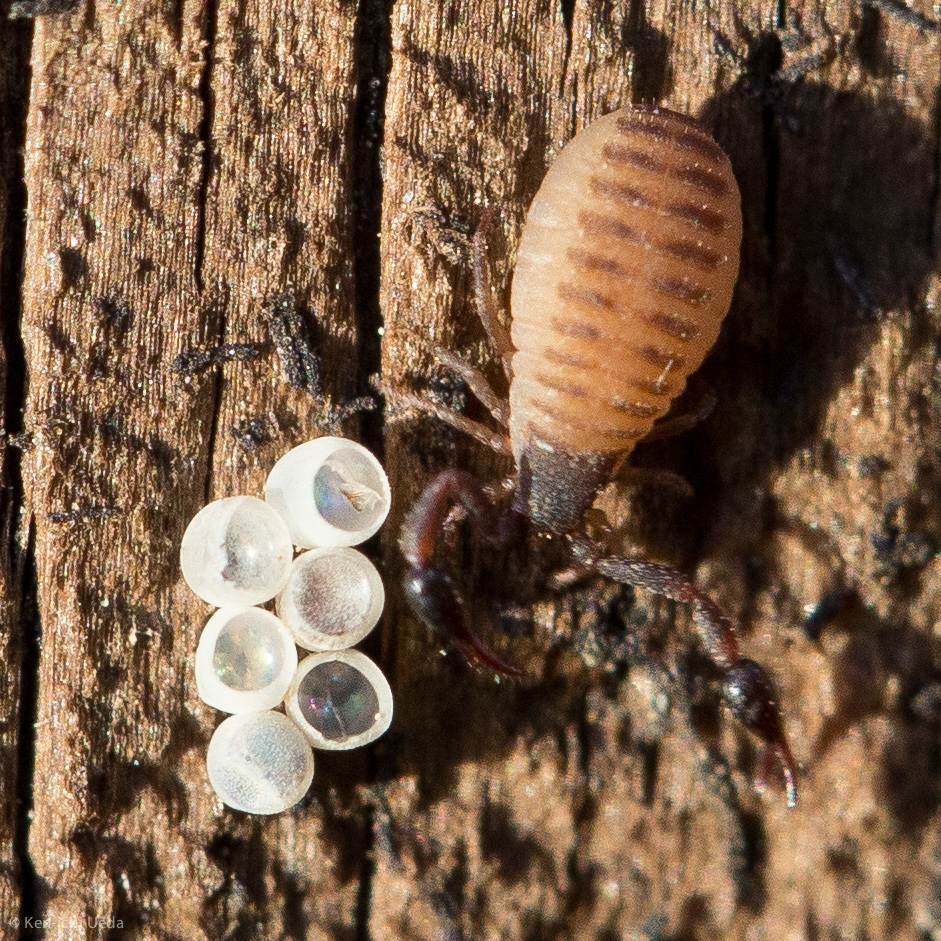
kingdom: Animalia
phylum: Arthropoda
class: Arachnida
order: Pseudoscorpiones
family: Garypidae
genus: Anchigarypus
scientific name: Anchigarypus californicus
